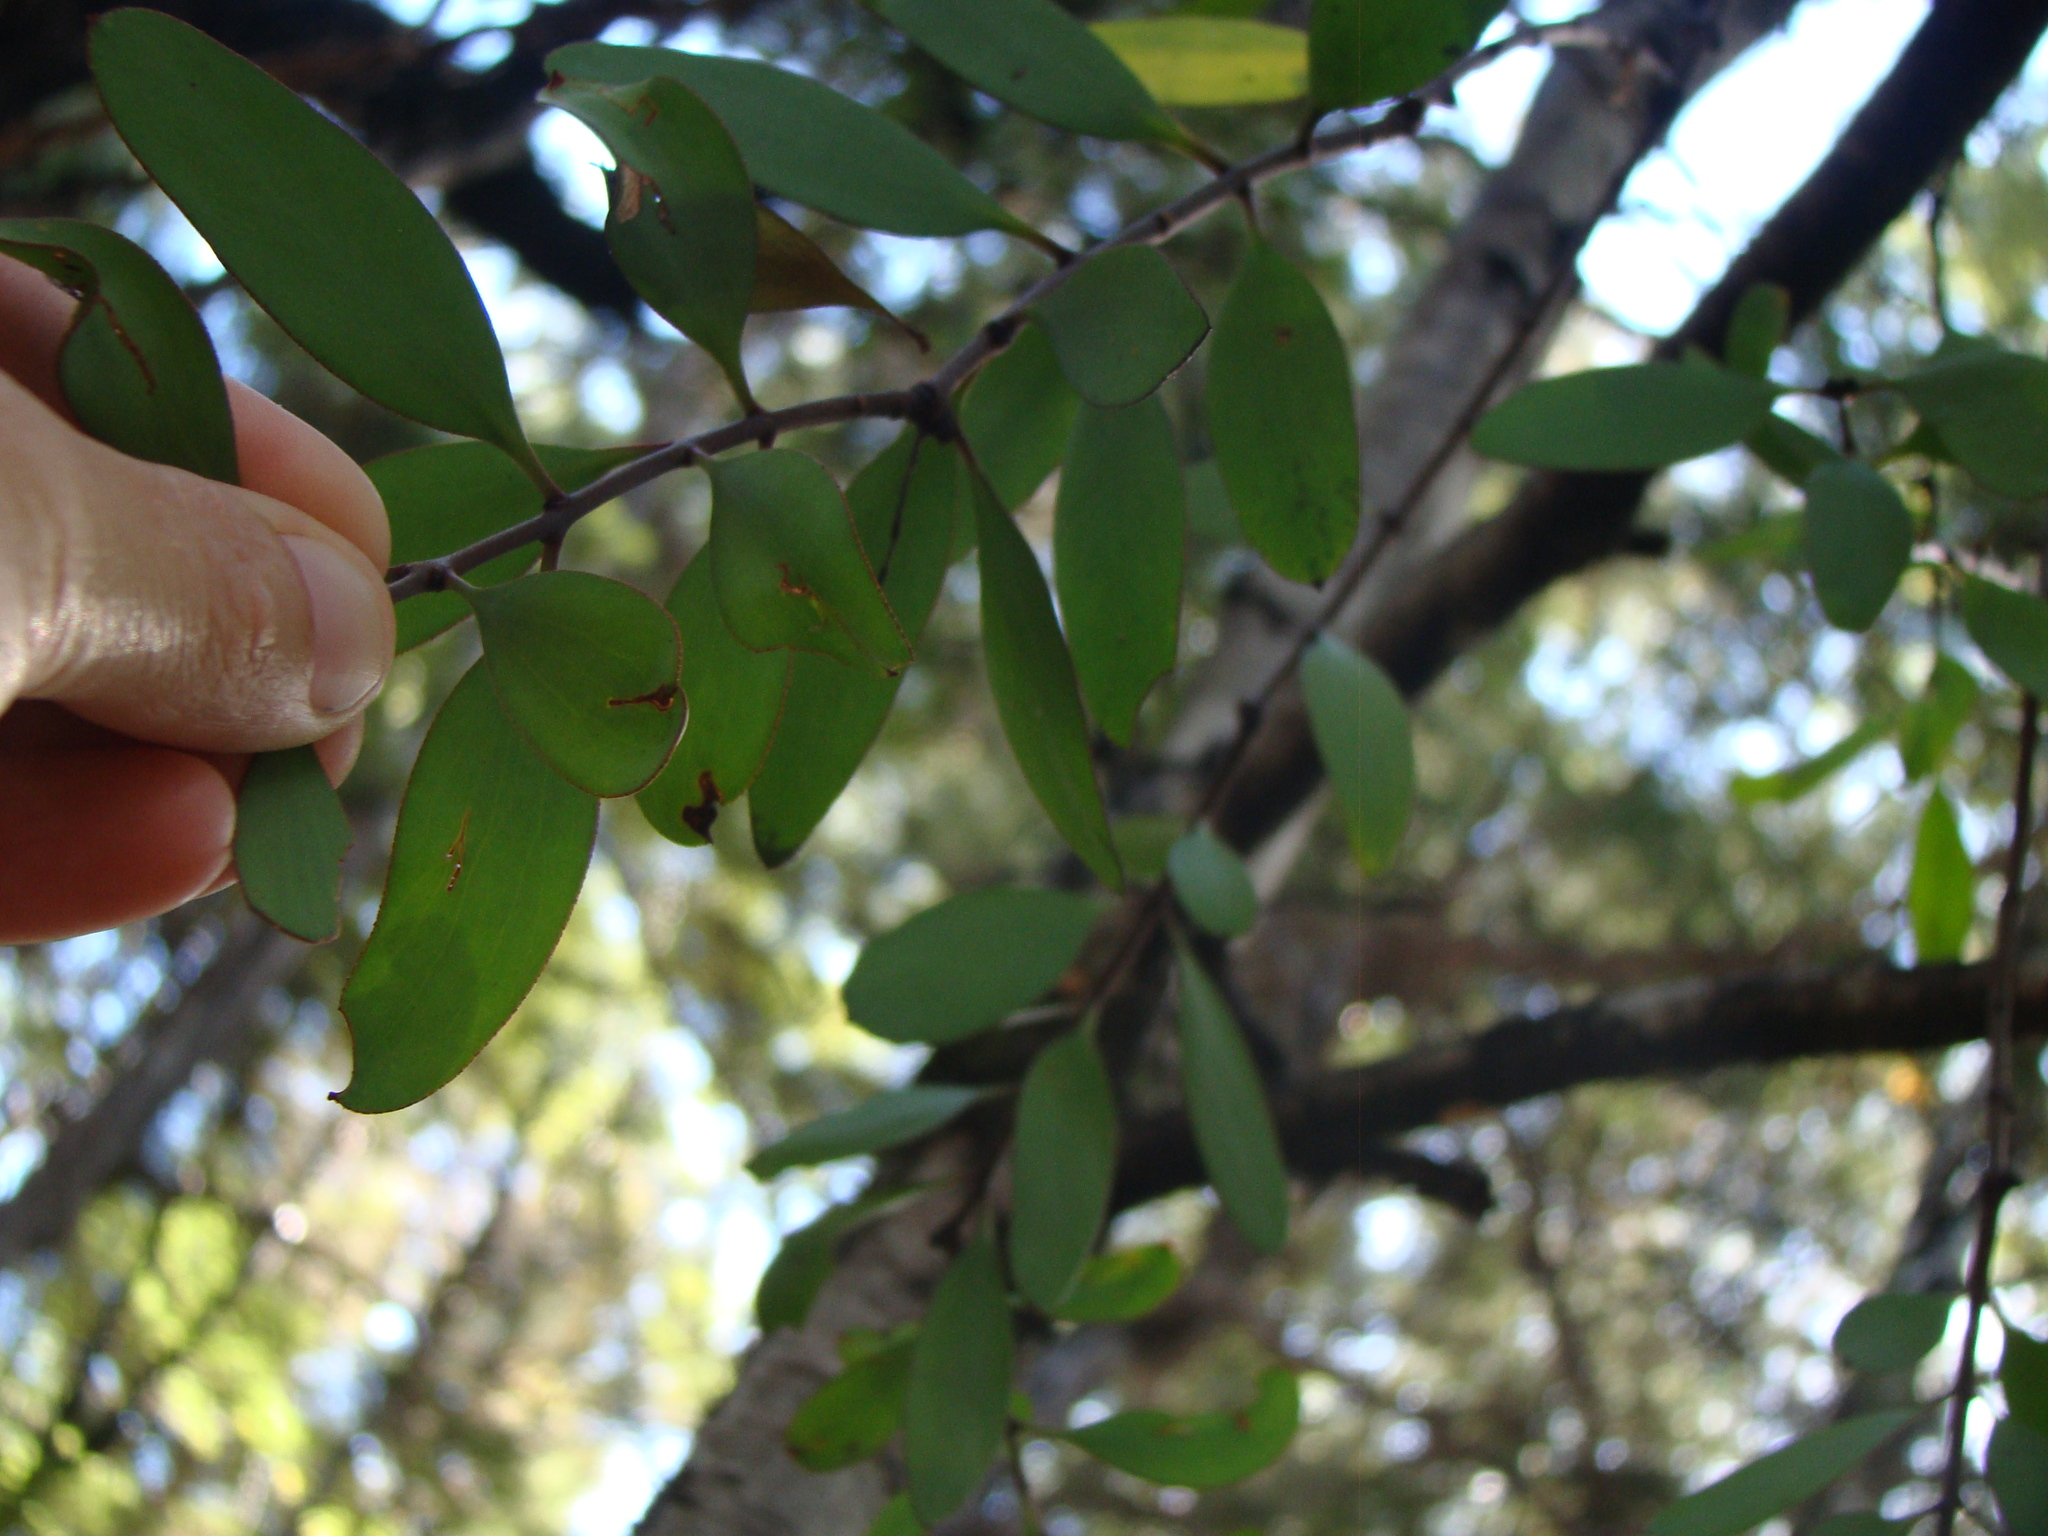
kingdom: Plantae
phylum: Tracheophyta
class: Magnoliopsida
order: Santalales
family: Loranthaceae
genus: Alepis
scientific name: Alepis flavida
